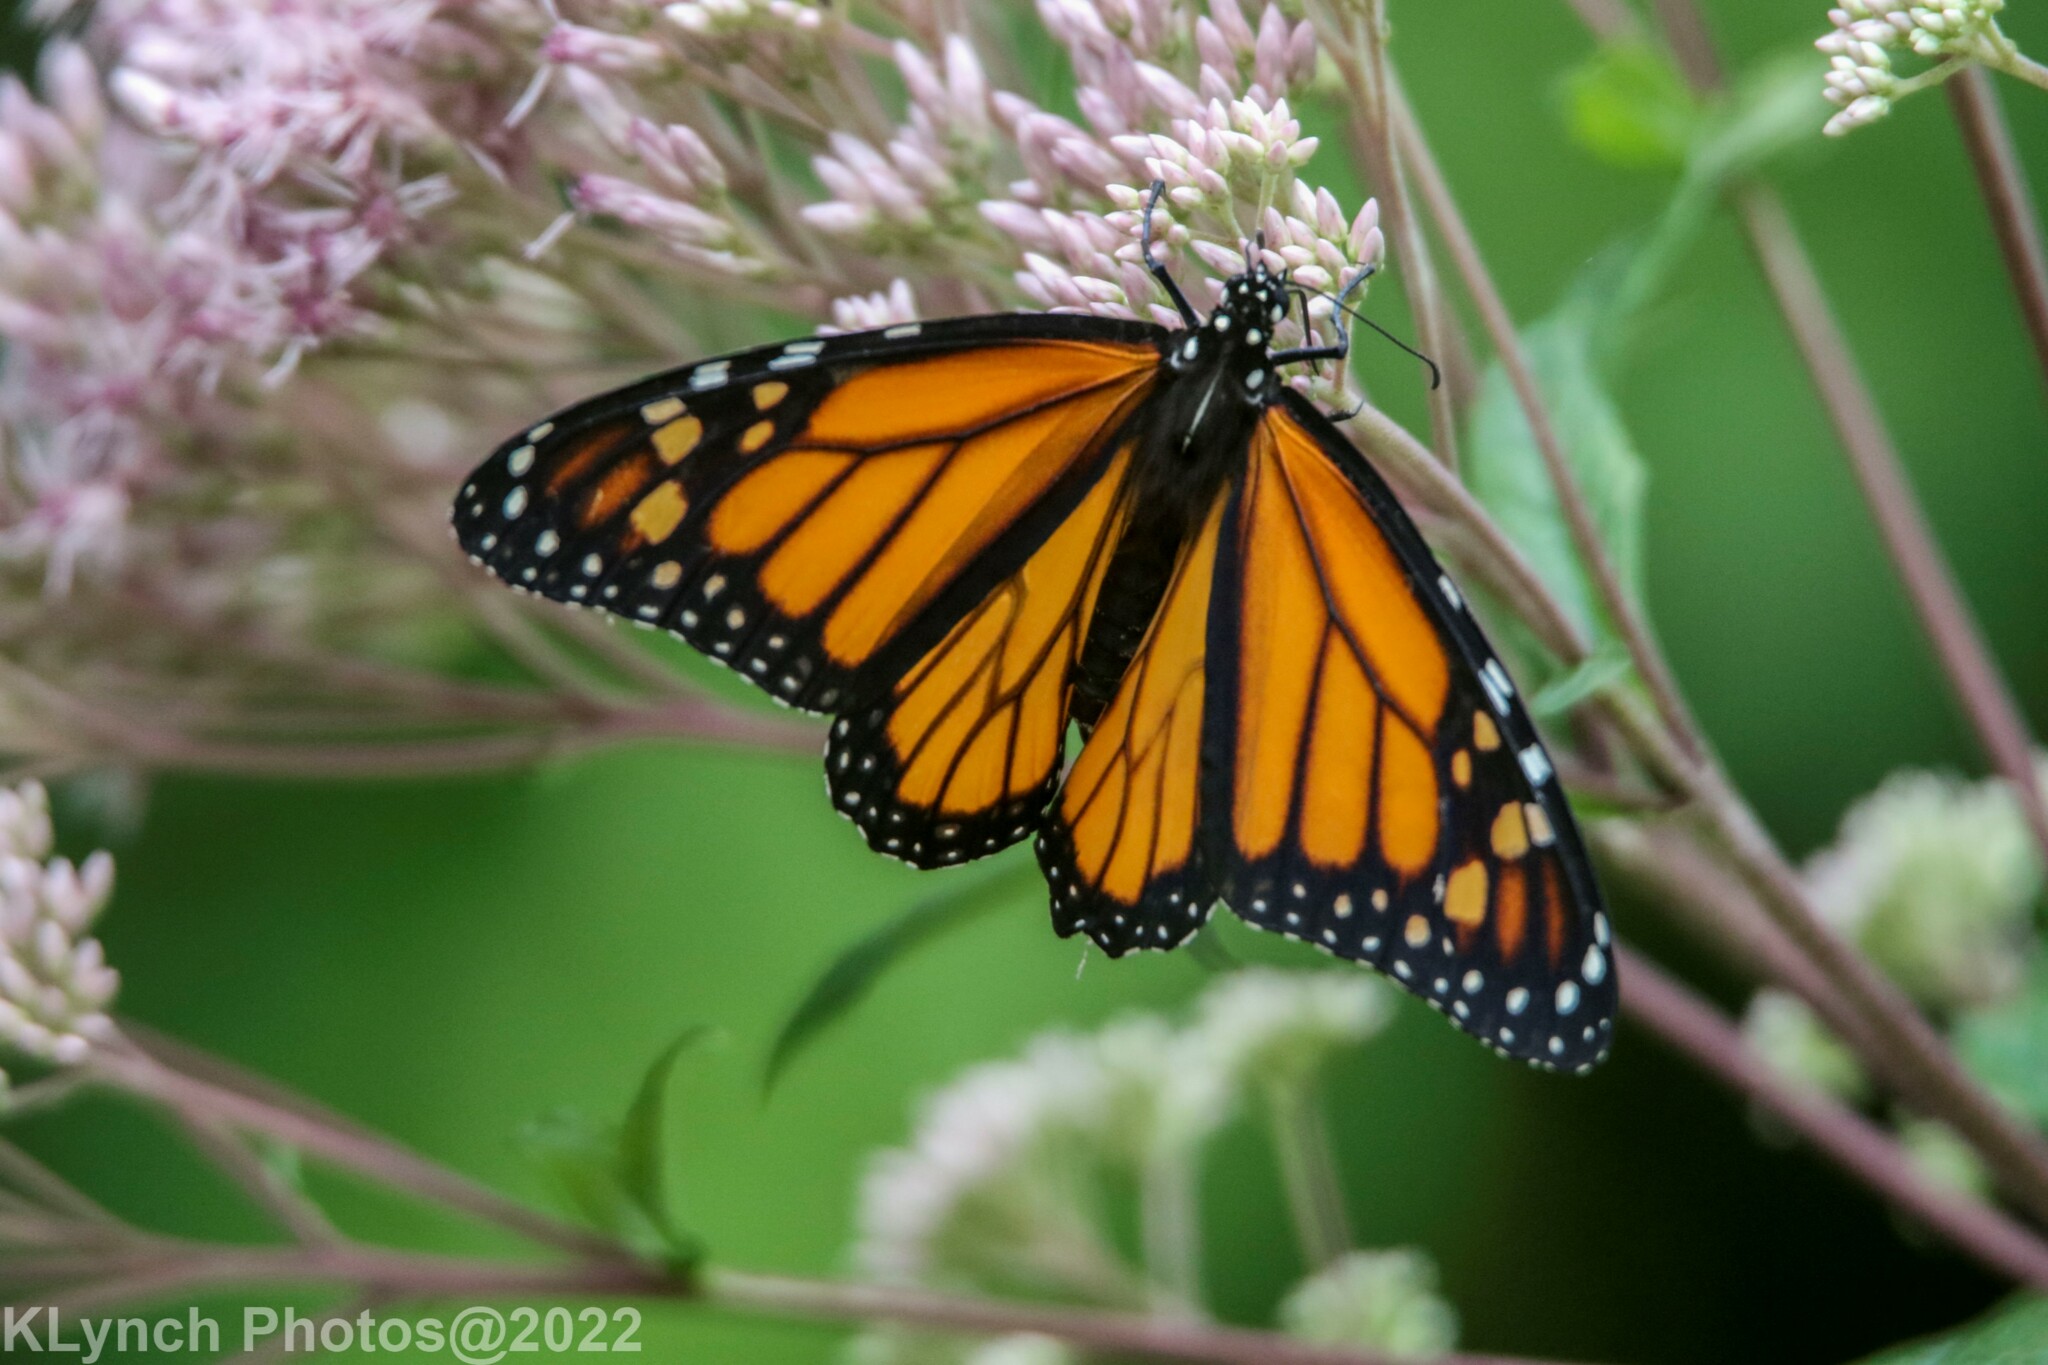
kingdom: Animalia
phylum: Arthropoda
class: Insecta
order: Lepidoptera
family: Nymphalidae
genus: Danaus
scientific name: Danaus plexippus
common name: Monarch
